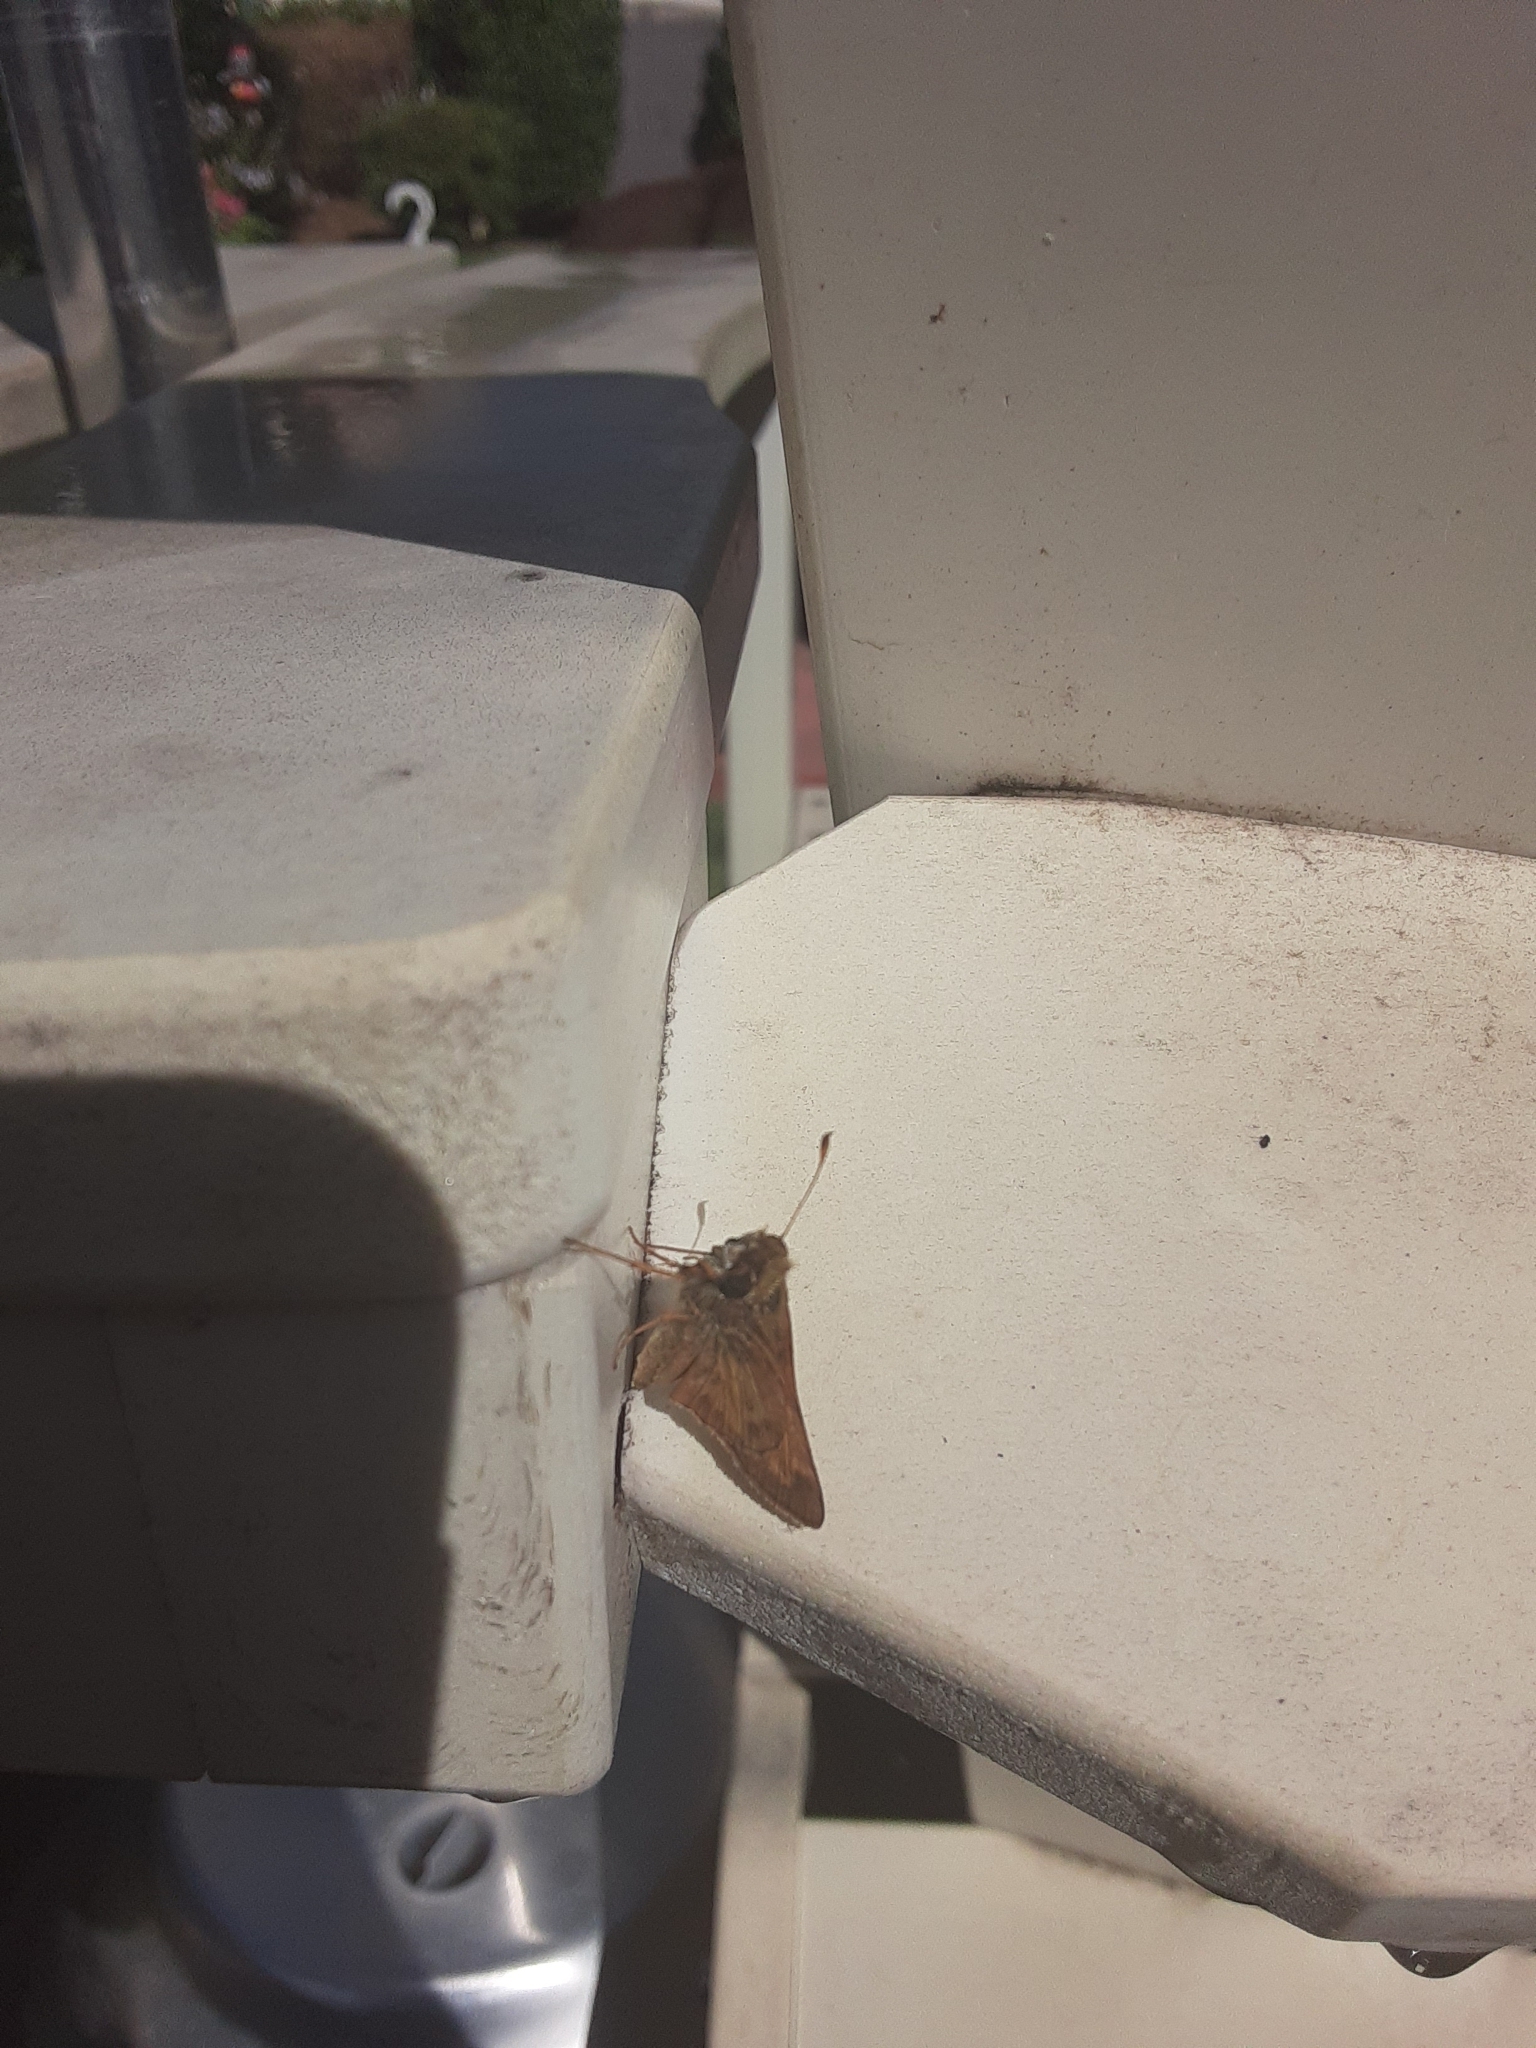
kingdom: Animalia
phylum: Arthropoda
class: Insecta
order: Lepidoptera
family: Hesperiidae
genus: Atalopedes
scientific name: Atalopedes
